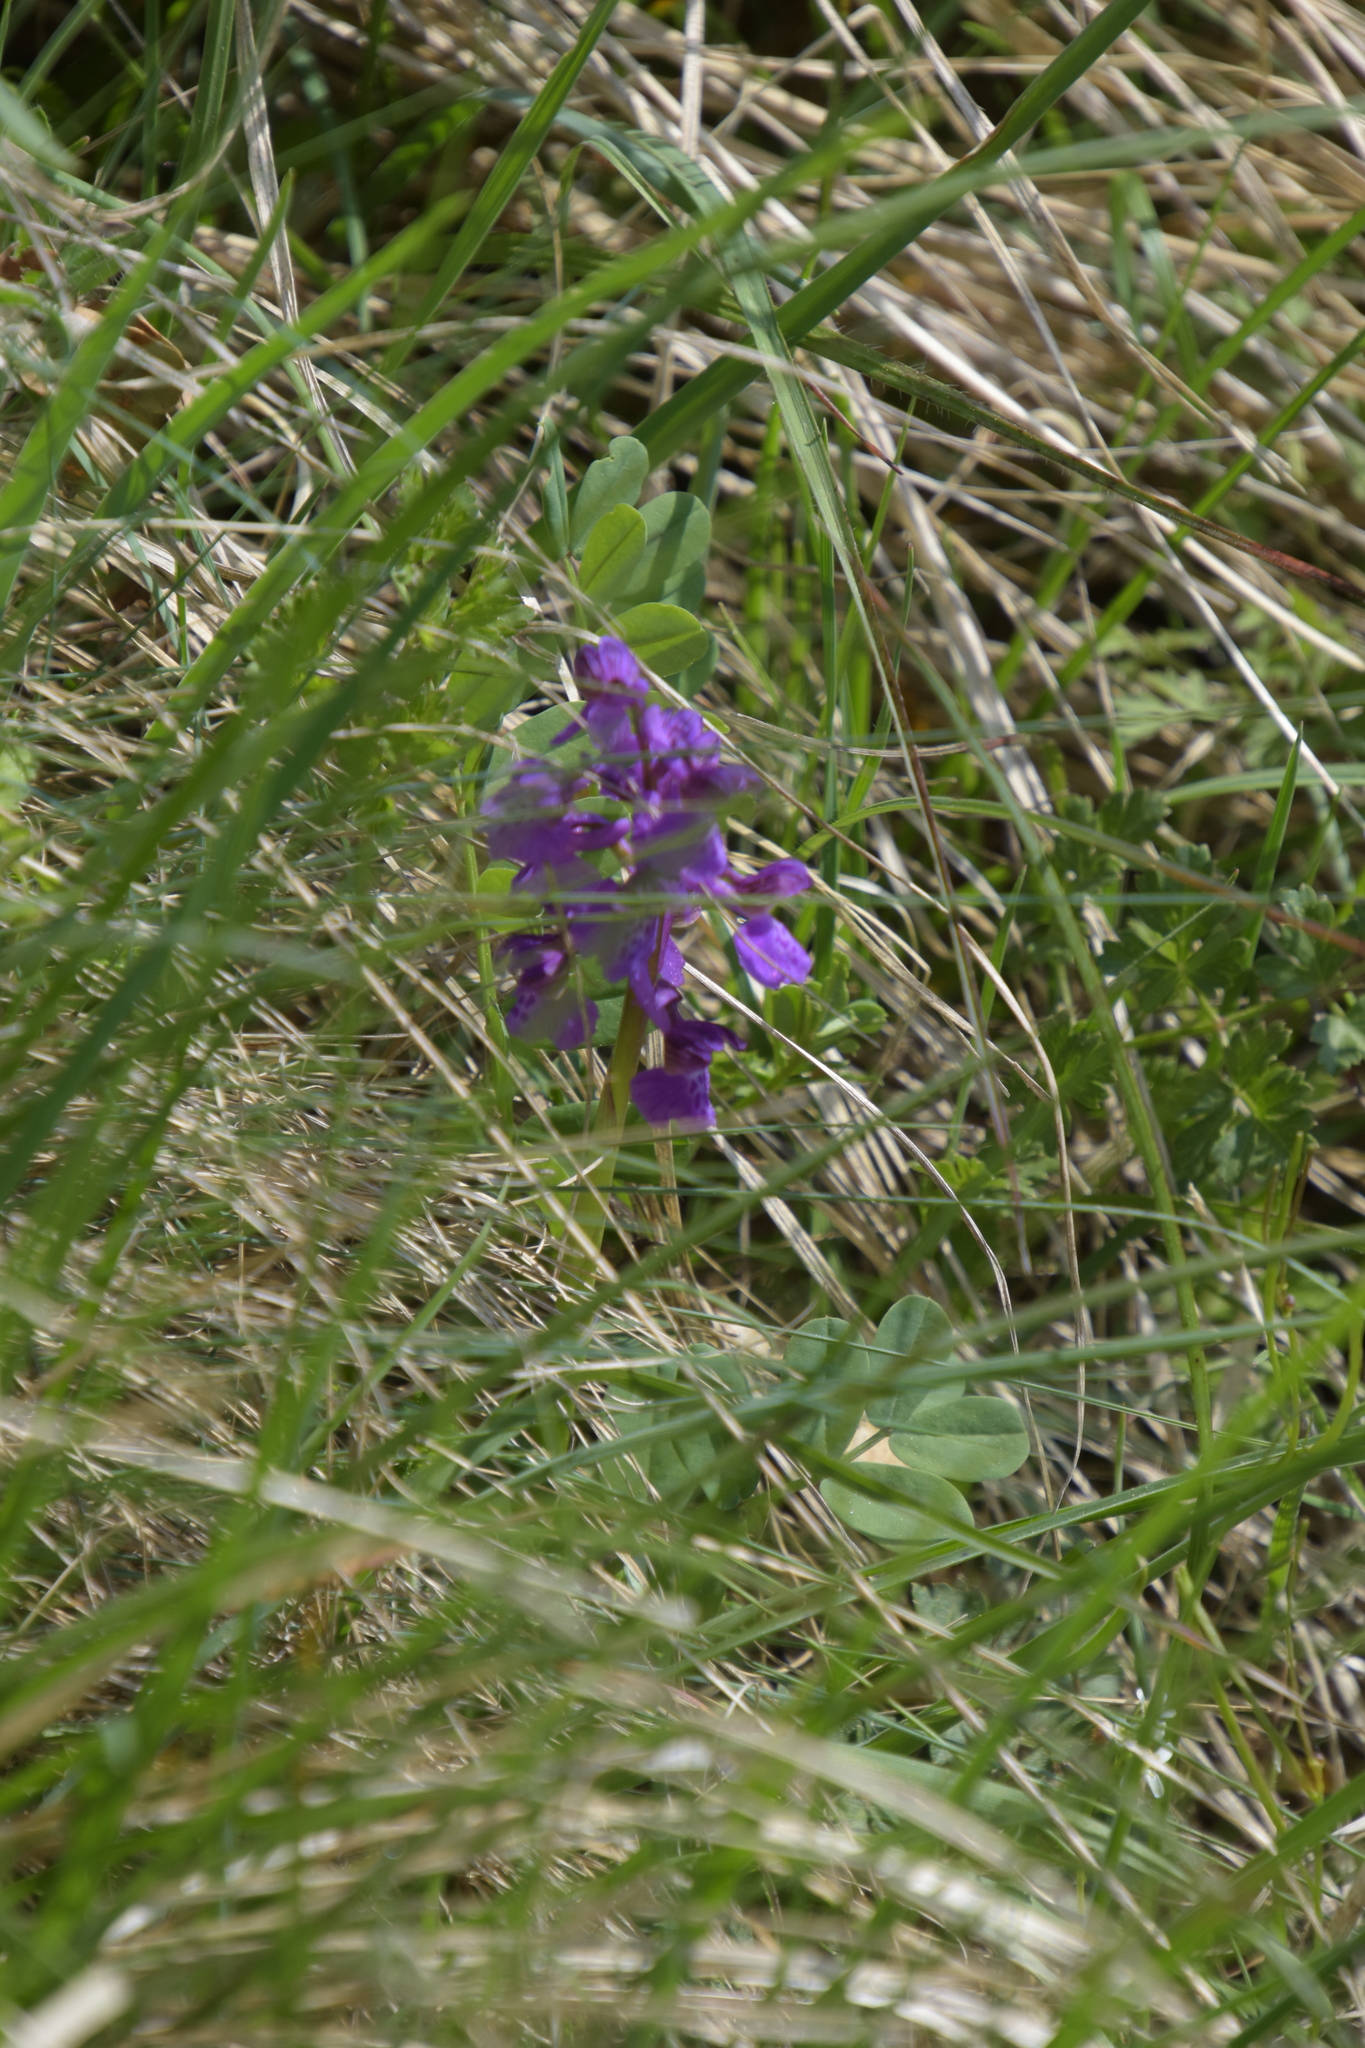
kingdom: Plantae
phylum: Tracheophyta
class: Liliopsida
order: Asparagales
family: Orchidaceae
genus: Anacamptis
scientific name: Anacamptis morio
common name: Green-winged orchid
